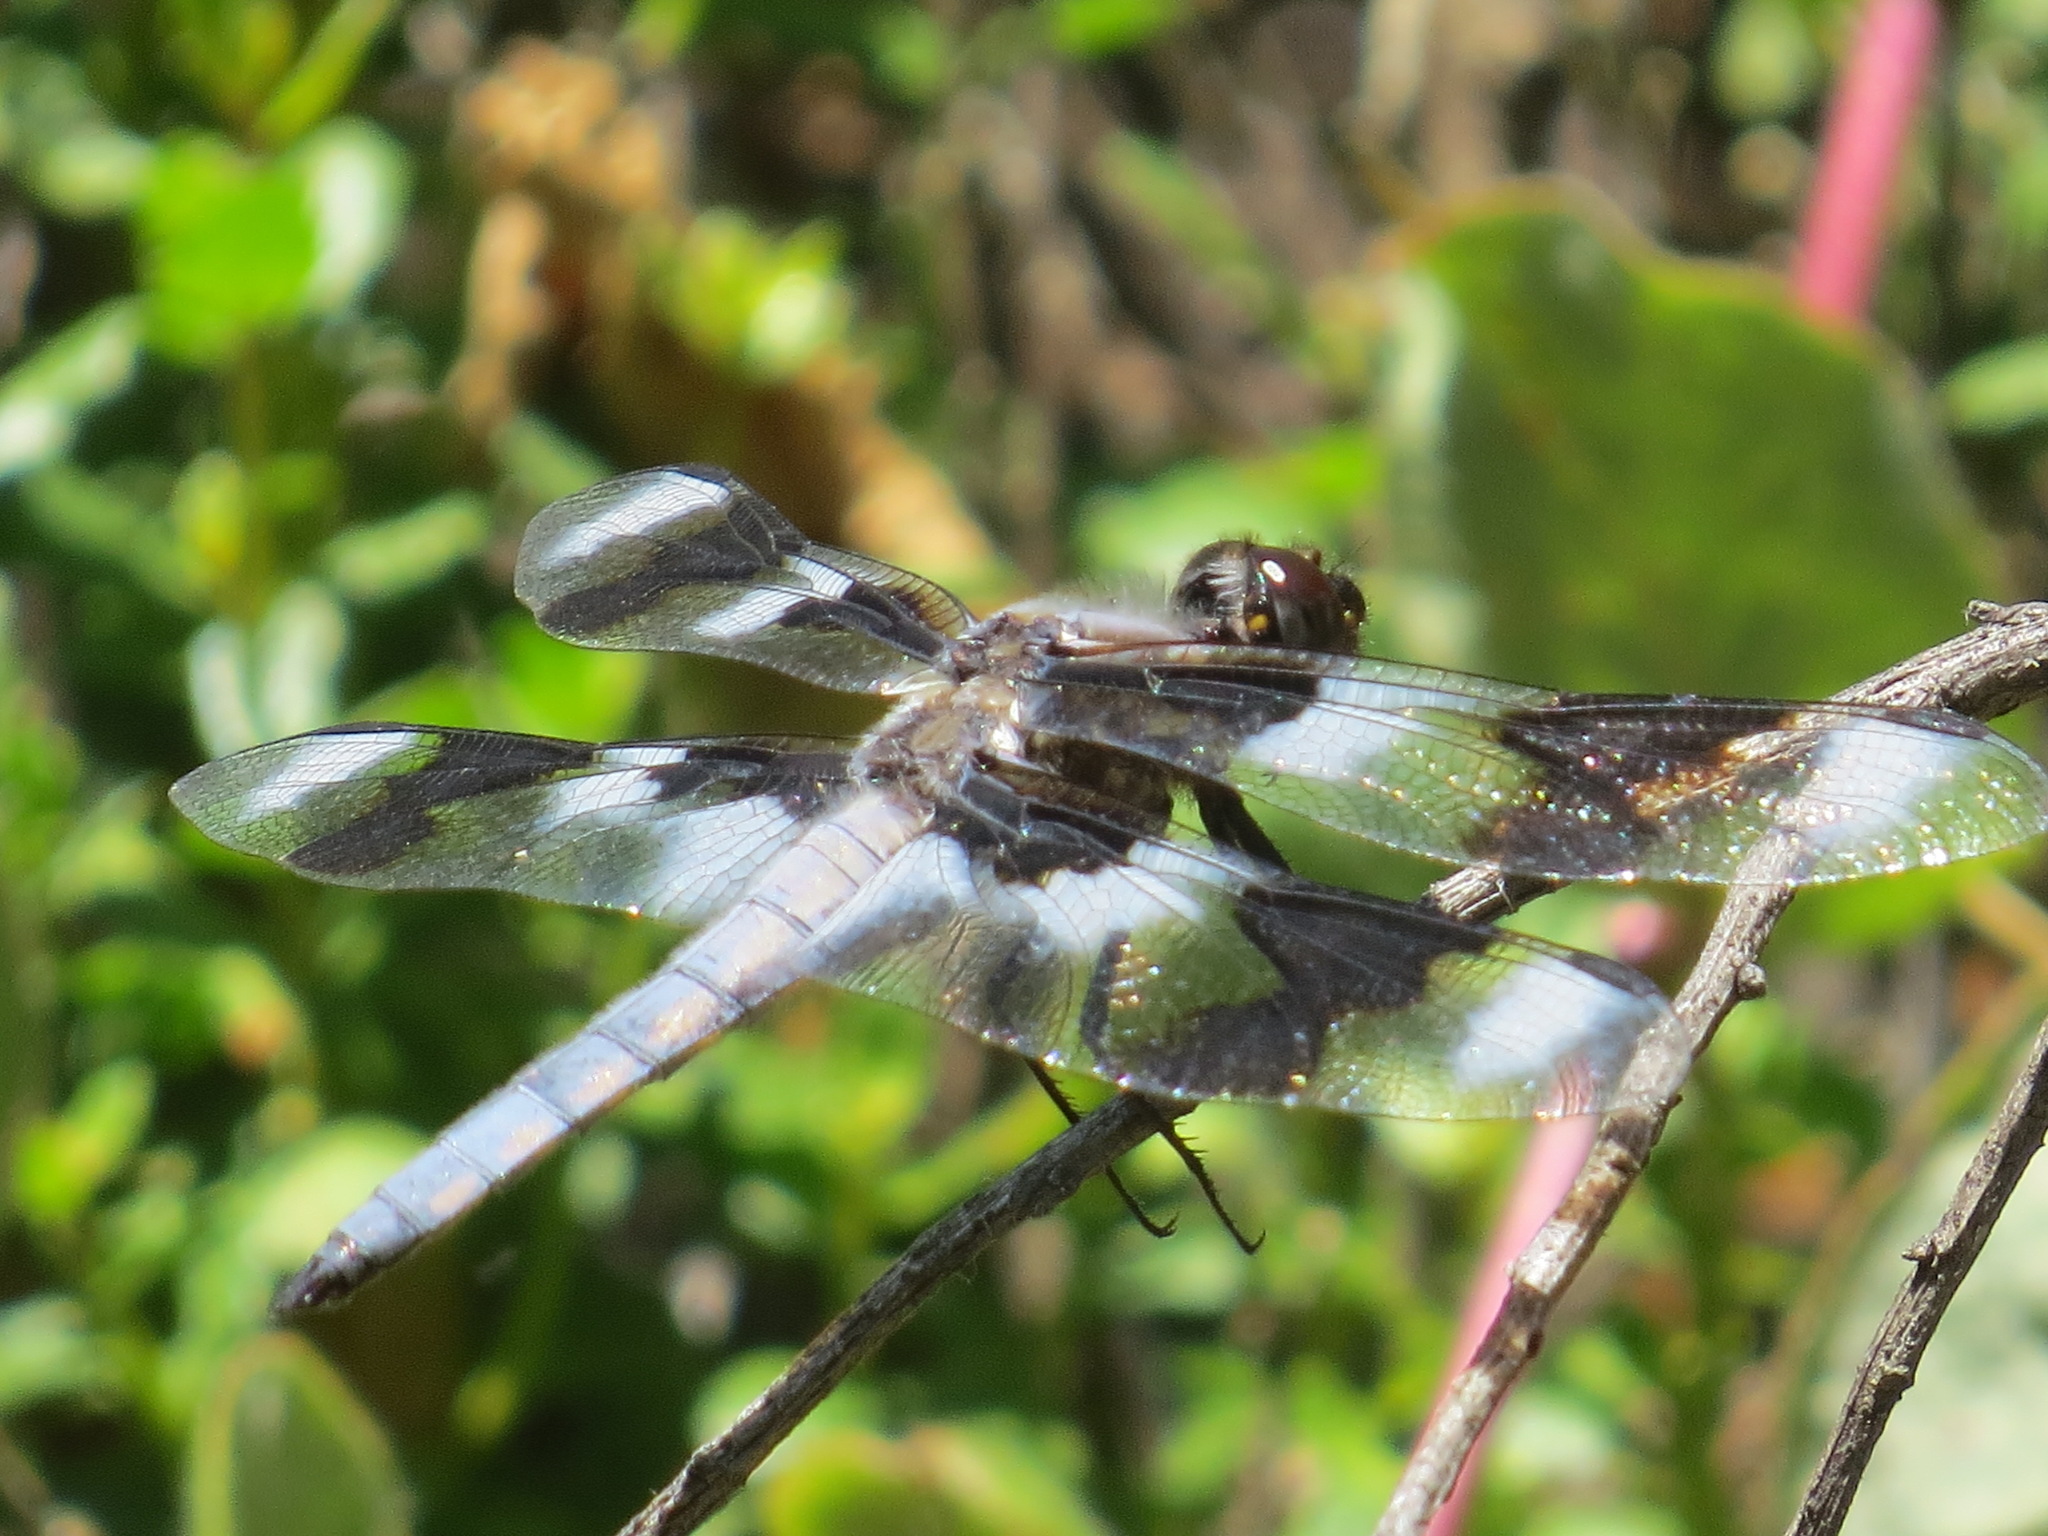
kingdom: Animalia
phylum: Arthropoda
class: Insecta
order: Odonata
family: Libellulidae
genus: Libellula
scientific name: Libellula forensis
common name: Eight-spotted skimmer
